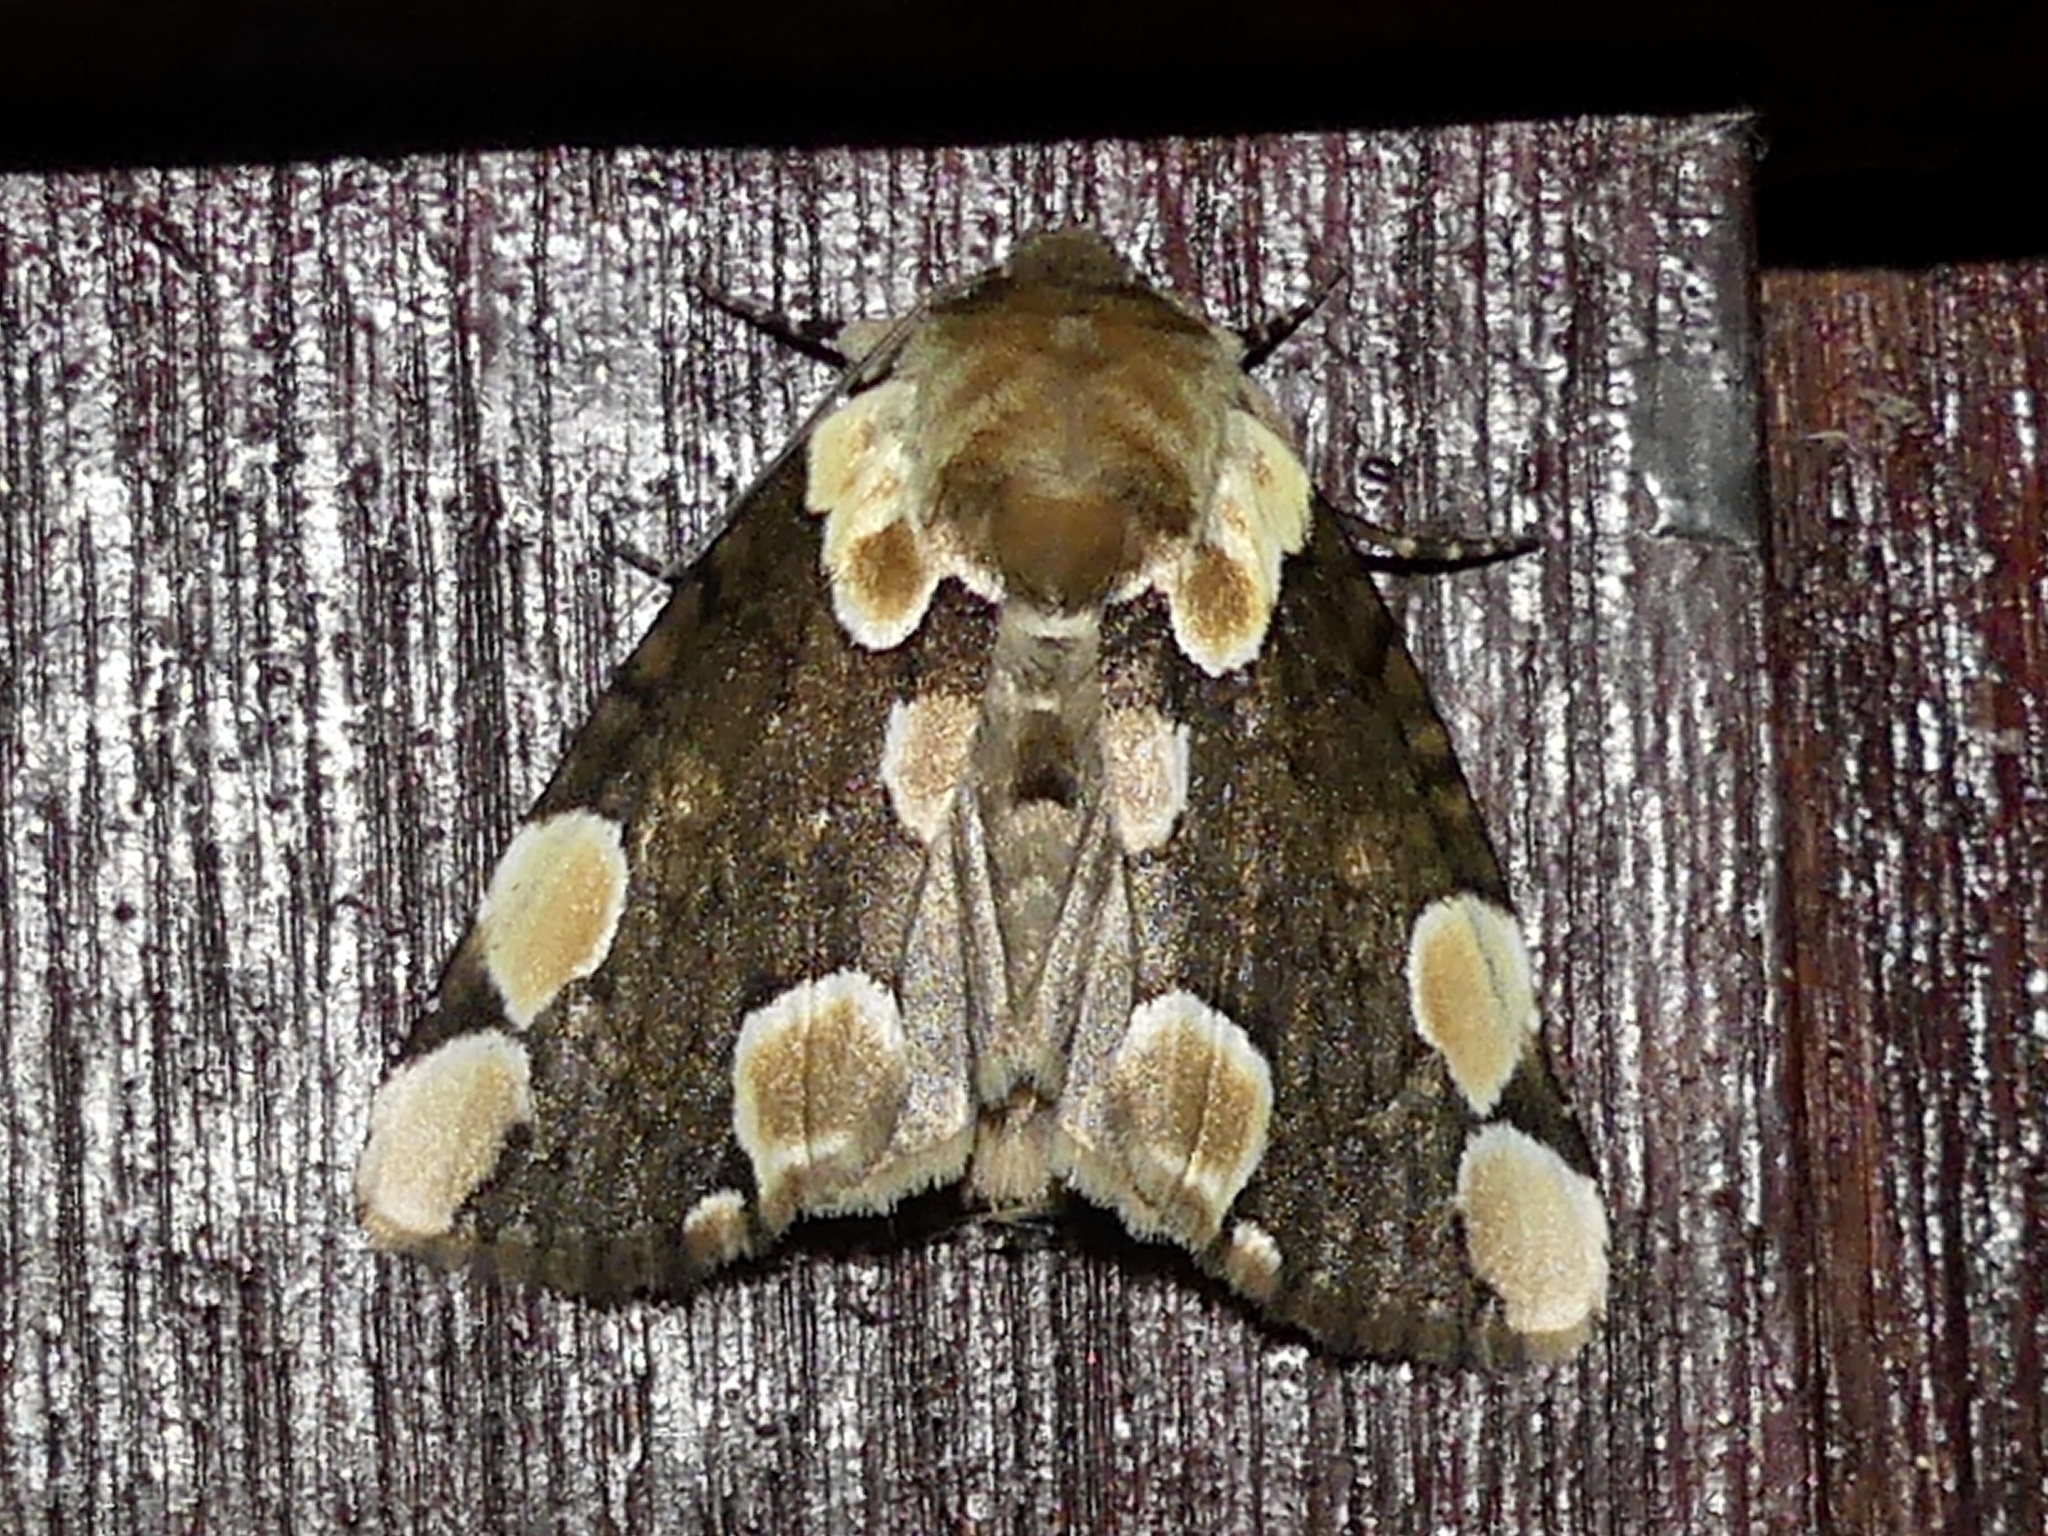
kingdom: Animalia
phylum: Arthropoda
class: Insecta
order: Lepidoptera
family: Drepanidae
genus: Thyatira
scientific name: Thyatira batis
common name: Peach blossom
